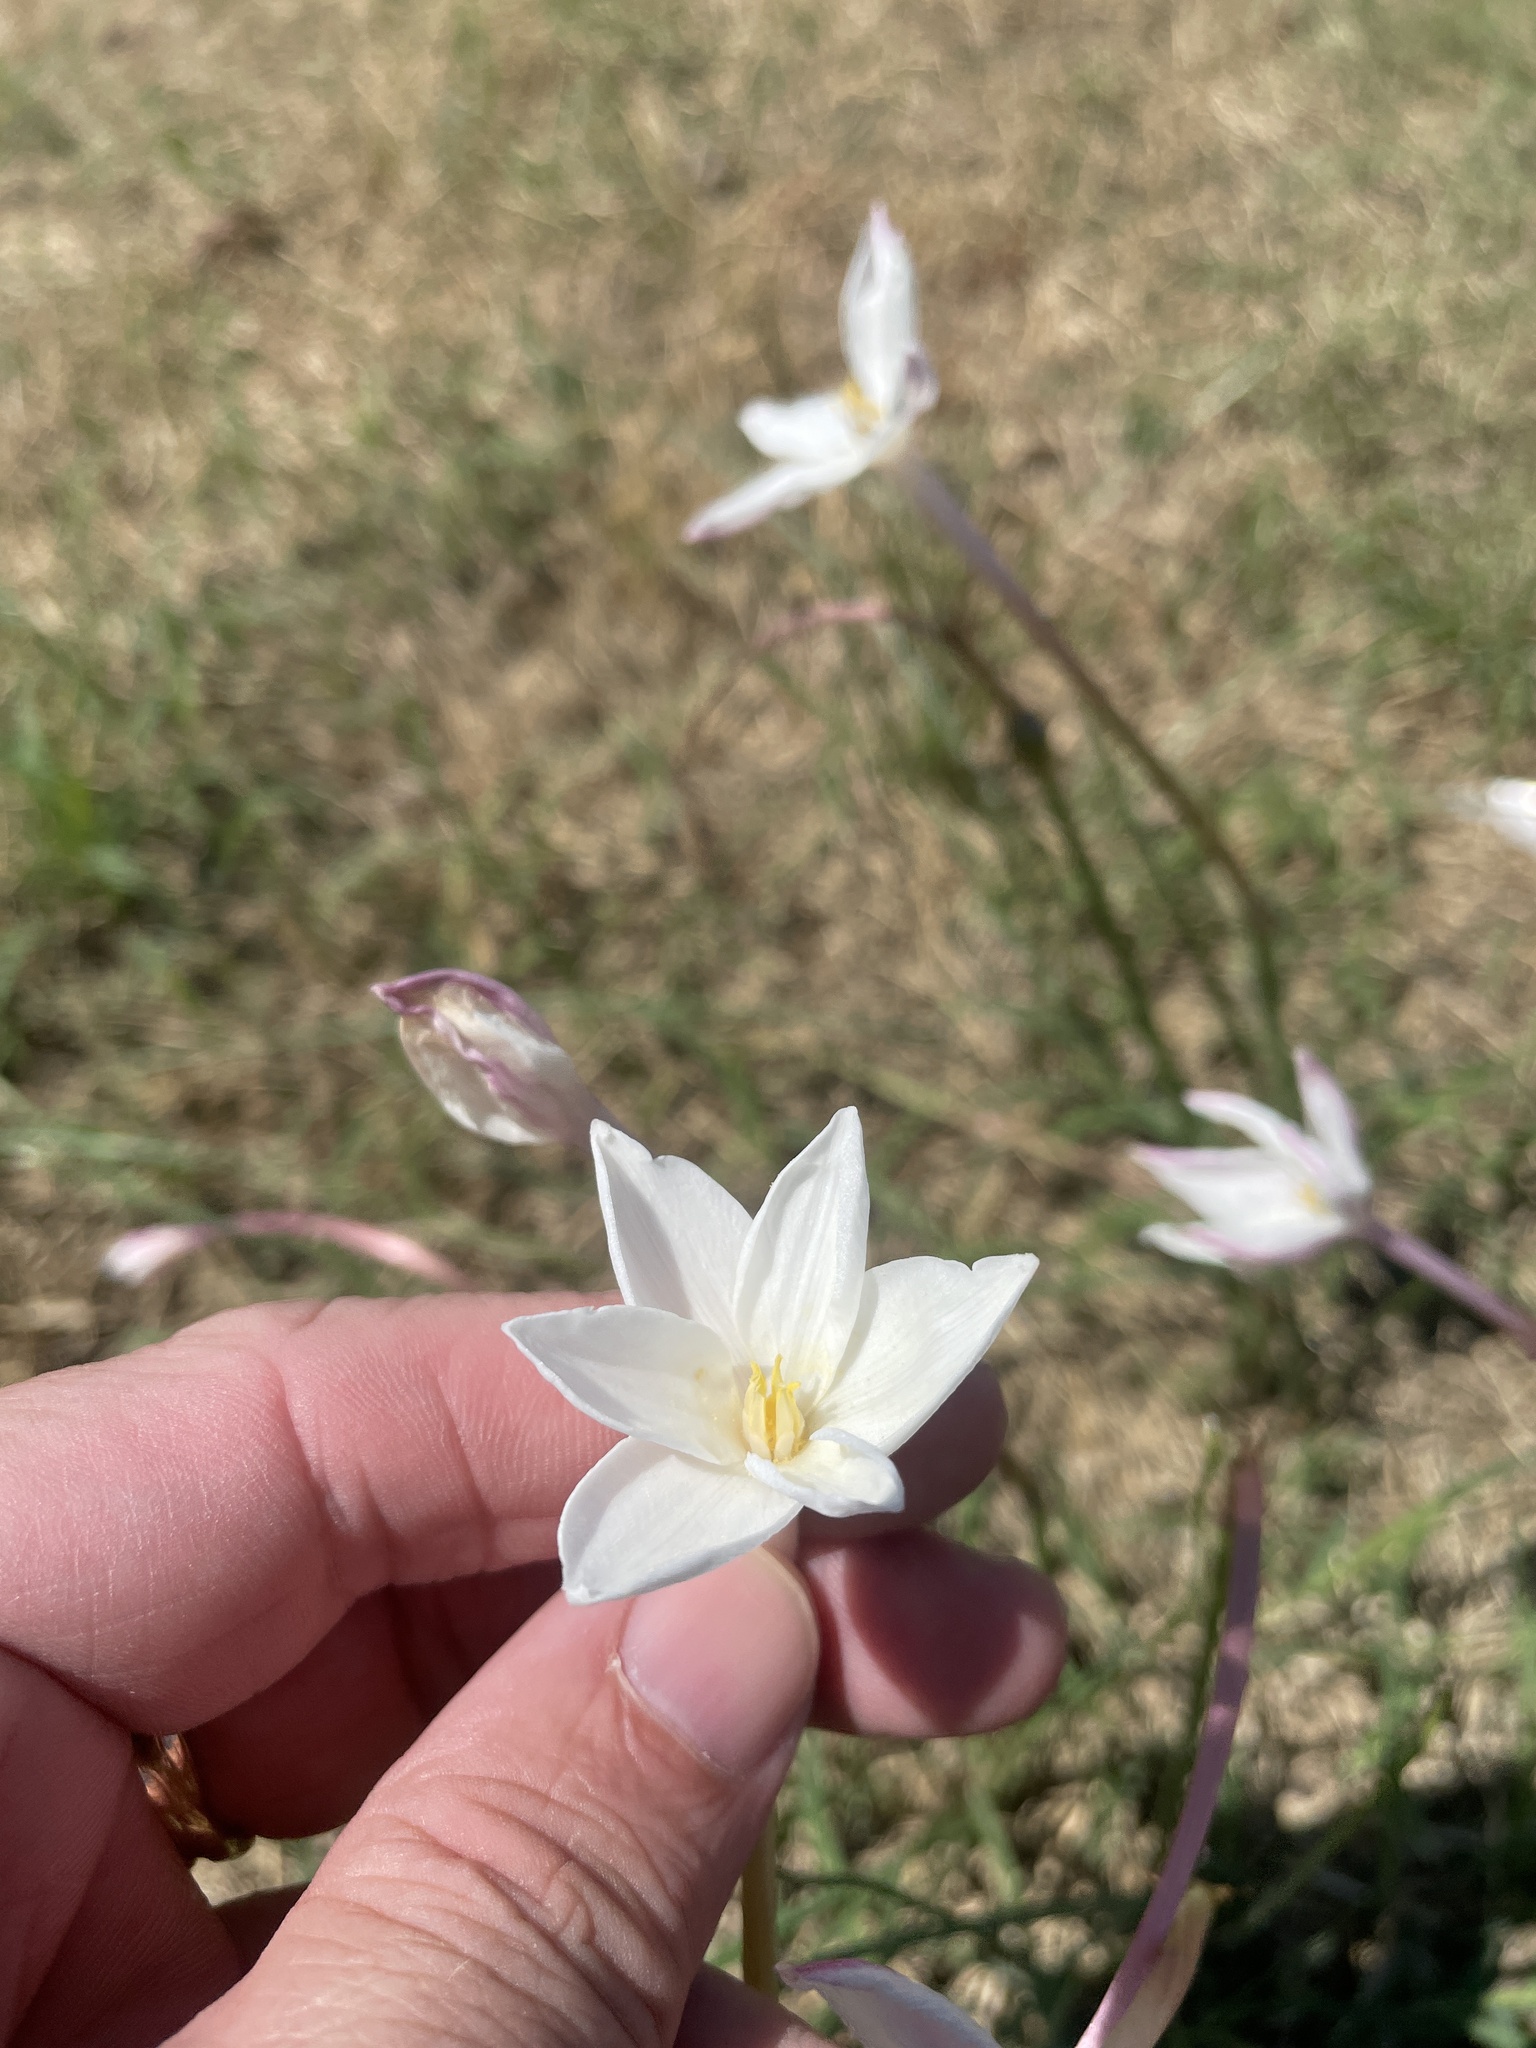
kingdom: Plantae
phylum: Tracheophyta
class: Liliopsida
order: Asparagales
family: Amaryllidaceae
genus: Zephyranthes
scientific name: Zephyranthes chlorosolen
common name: Evening rain-lily
